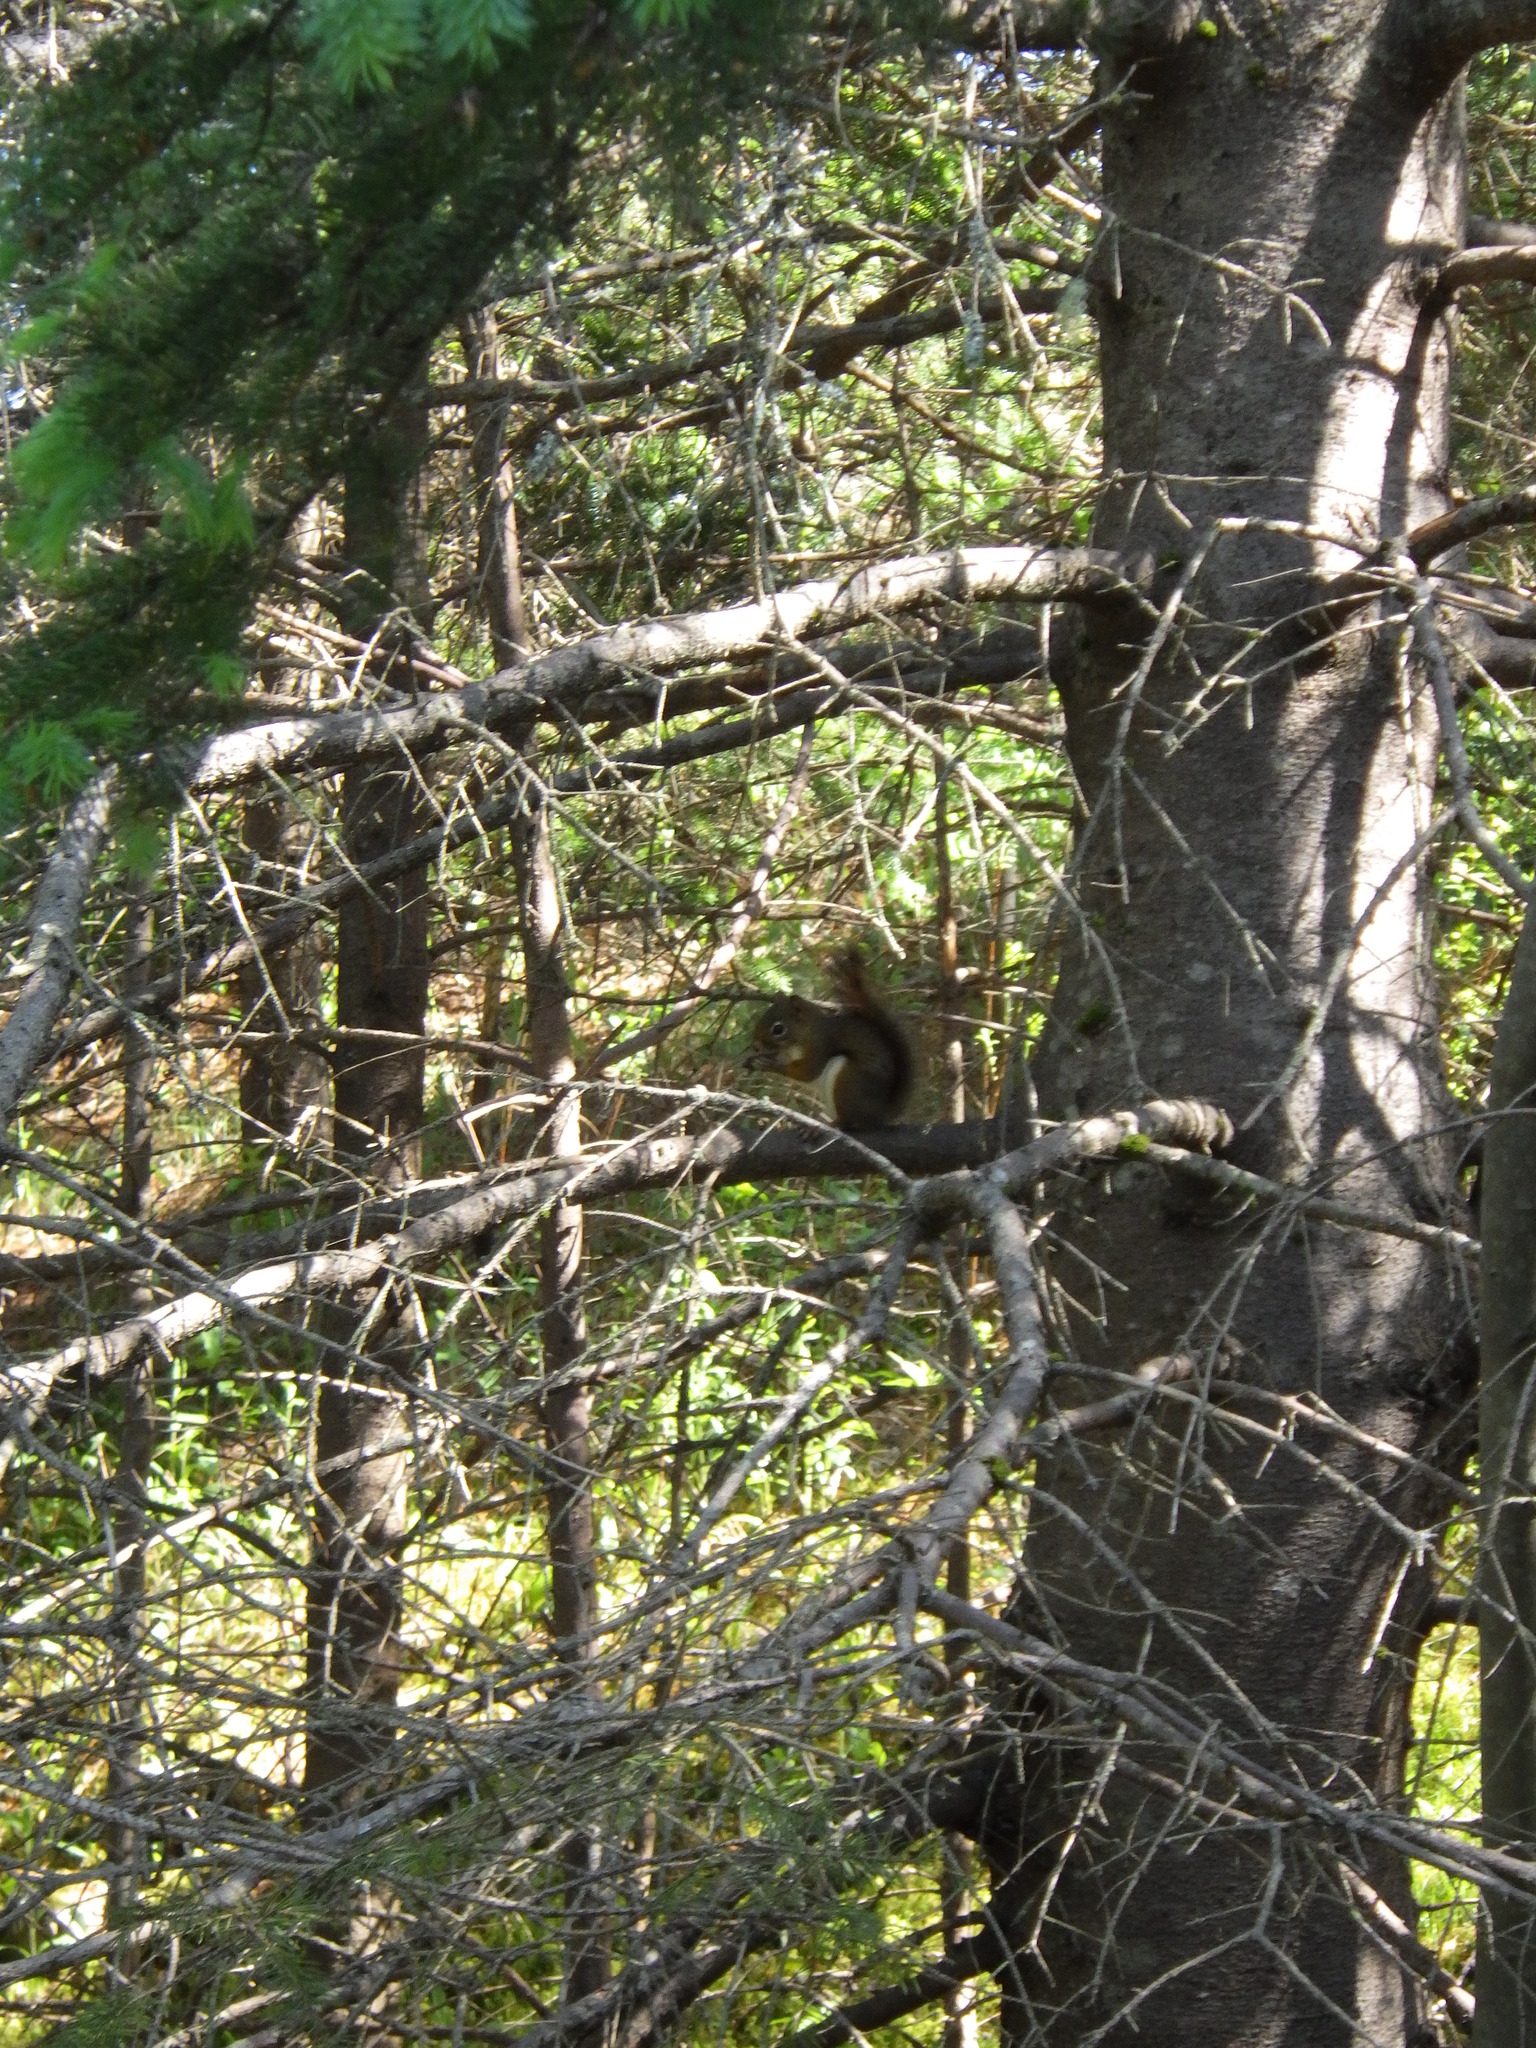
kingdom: Animalia
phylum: Chordata
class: Mammalia
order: Rodentia
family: Sciuridae
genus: Tamiasciurus
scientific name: Tamiasciurus hudsonicus
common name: Red squirrel
